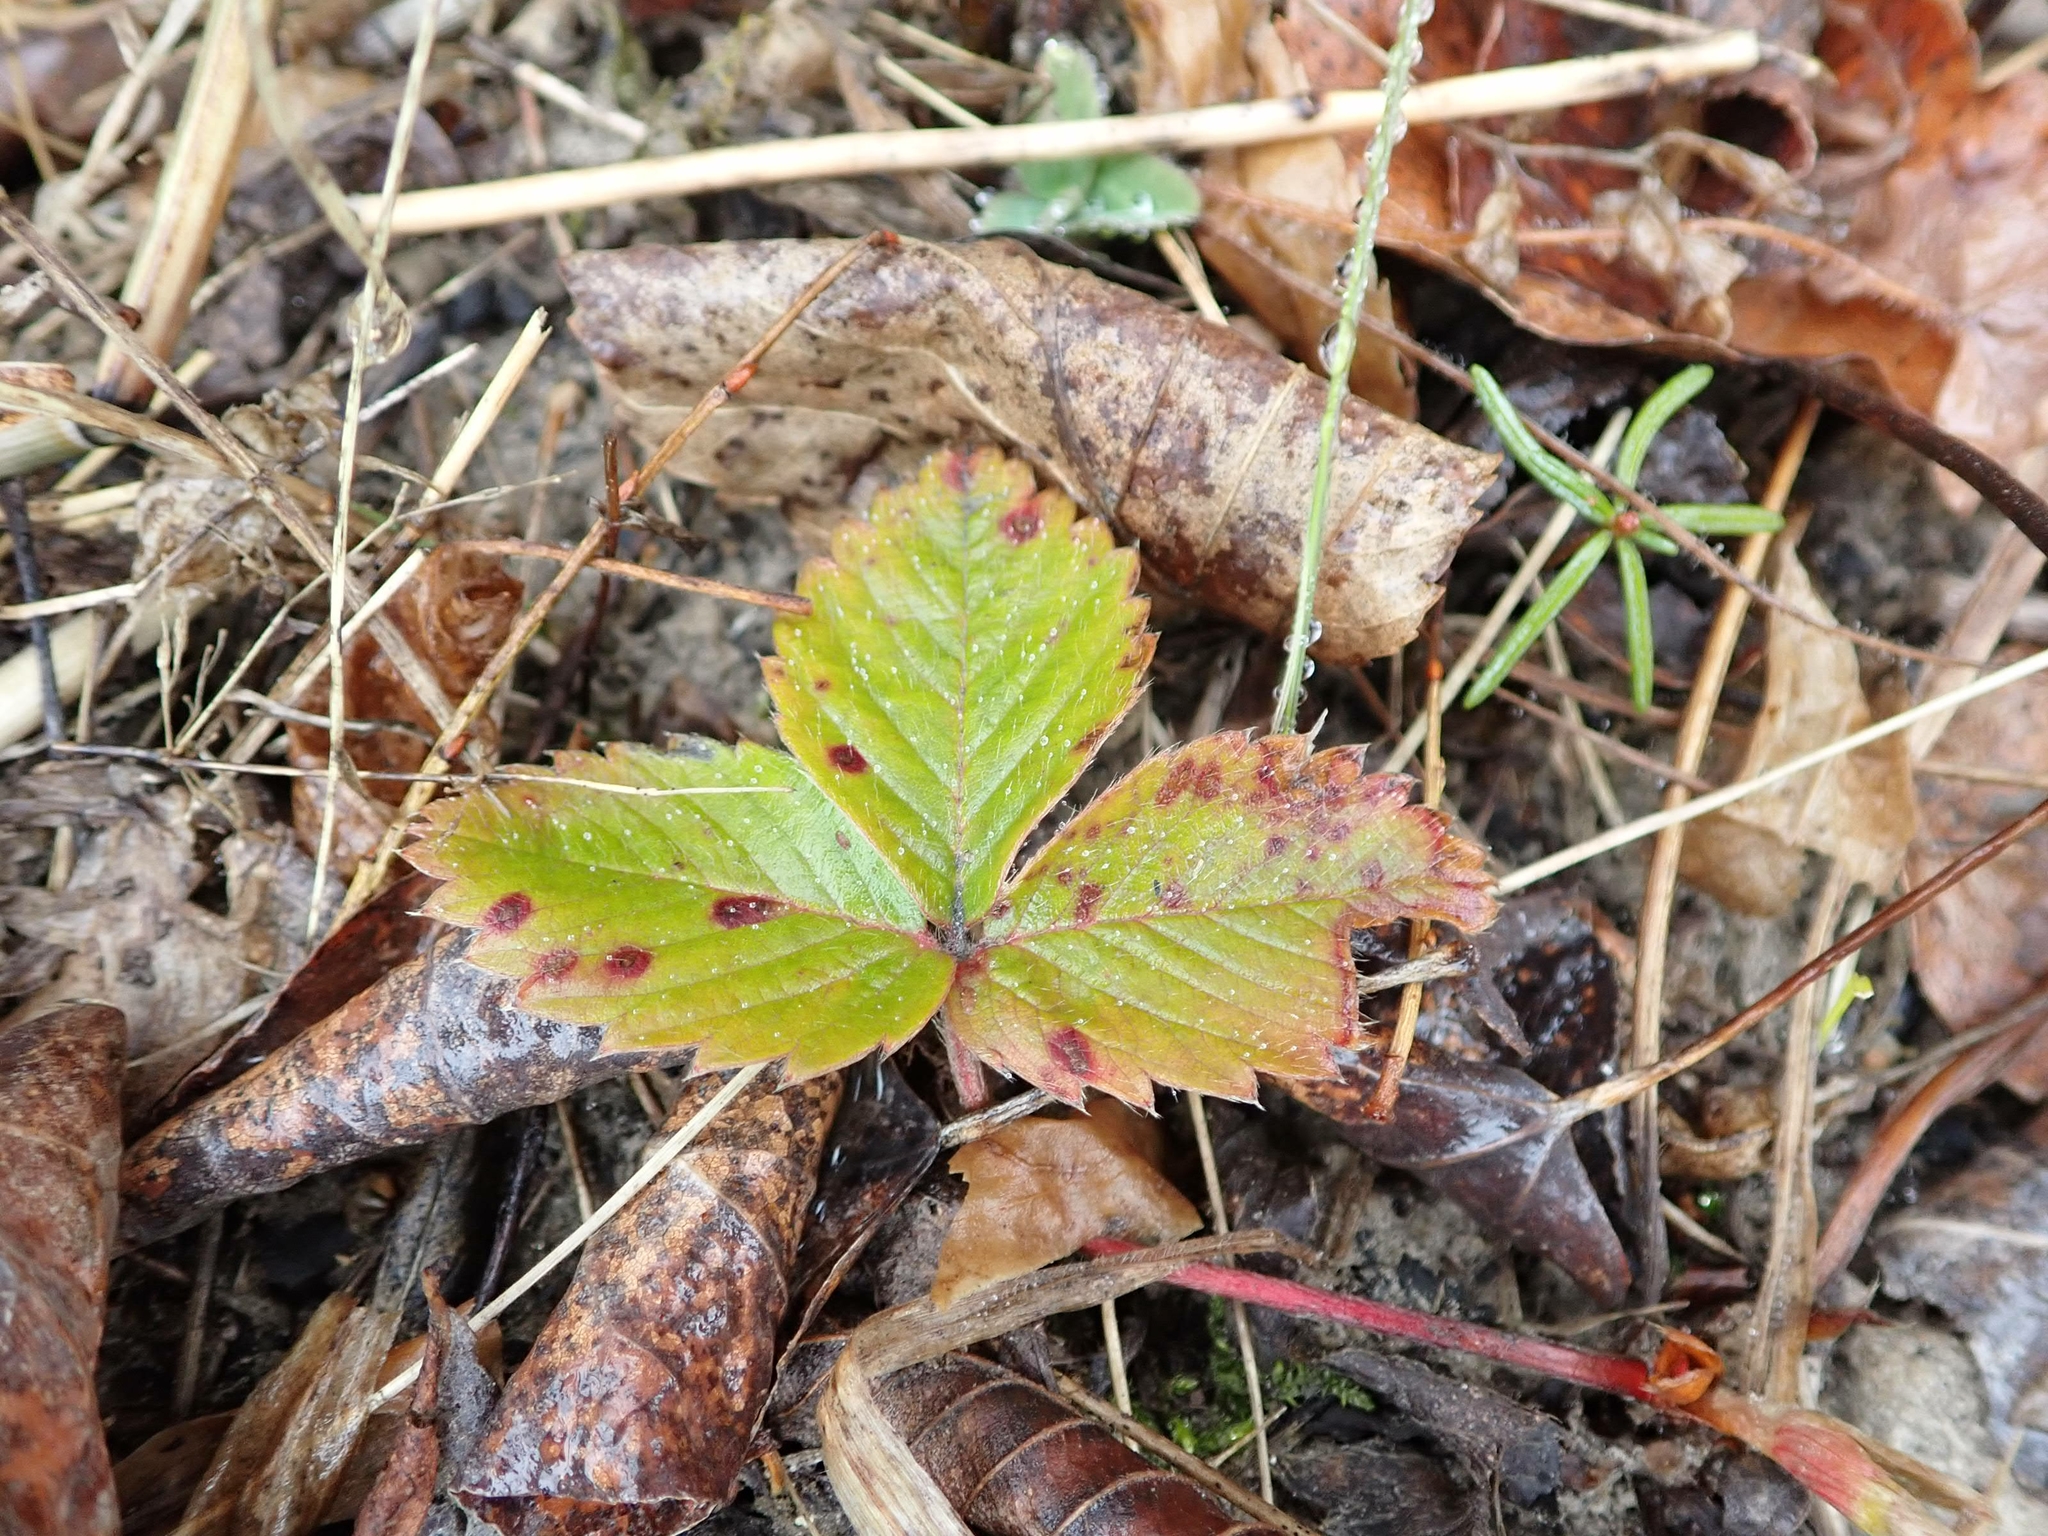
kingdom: Plantae
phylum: Tracheophyta
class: Magnoliopsida
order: Rosales
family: Rosaceae
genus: Fragaria
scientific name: Fragaria virginiana
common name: Thickleaved wild strawberry
